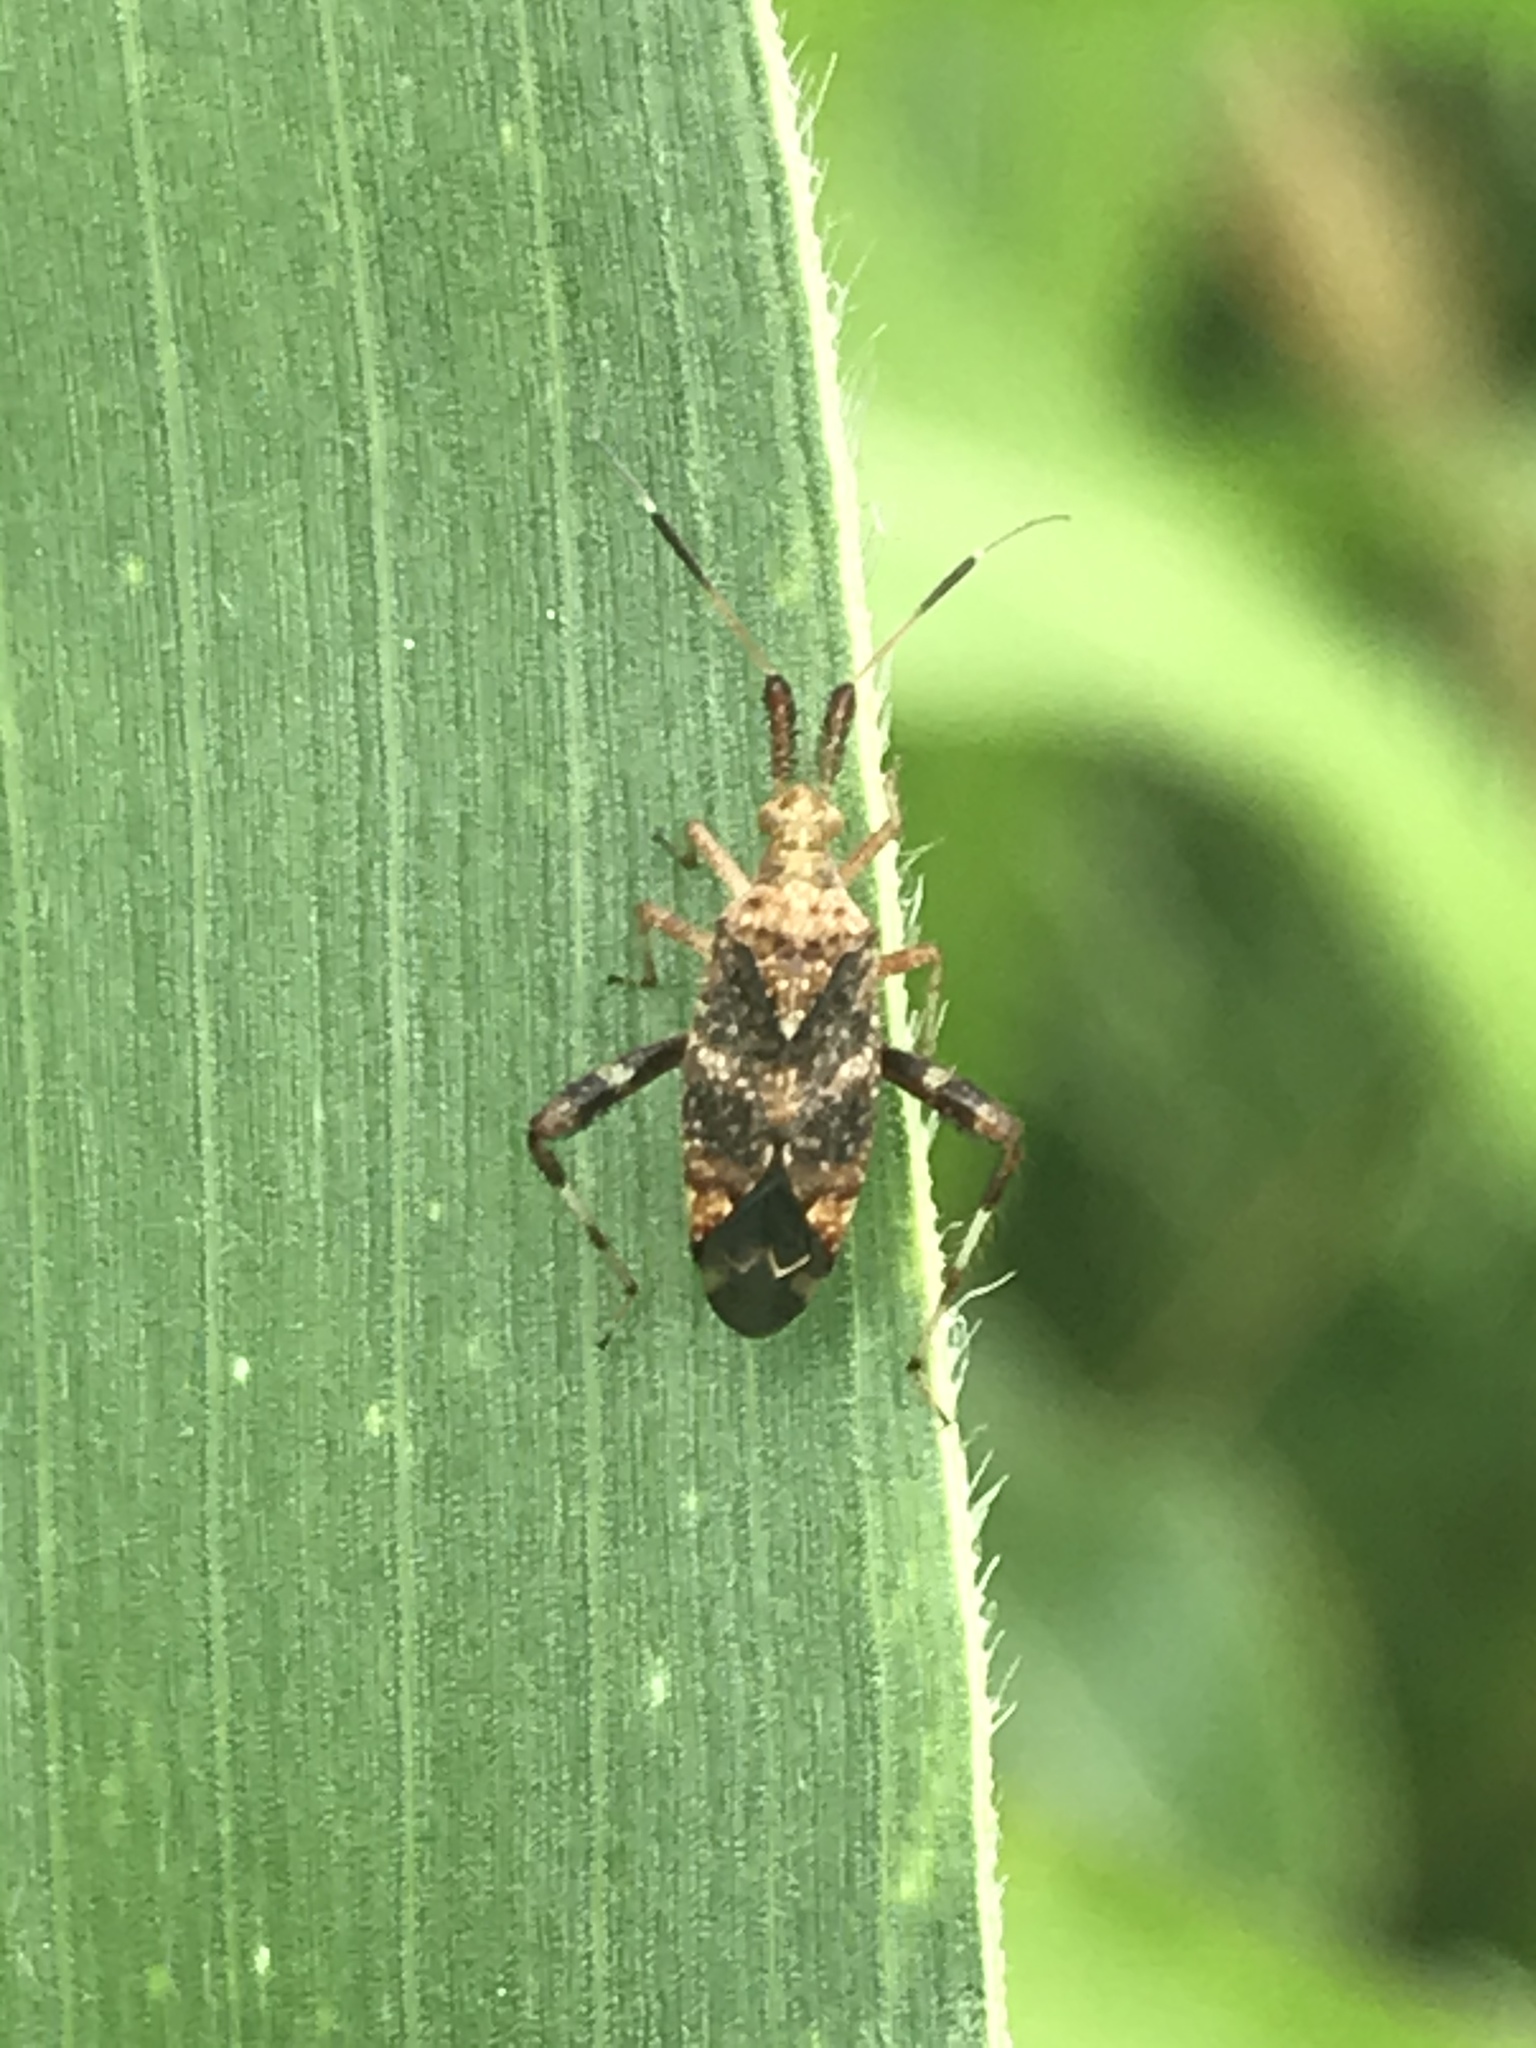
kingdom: Animalia
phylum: Arthropoda
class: Insecta
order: Hemiptera
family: Miridae
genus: Neurocolpus
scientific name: Neurocolpus nubilus
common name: Clouded plant bug
